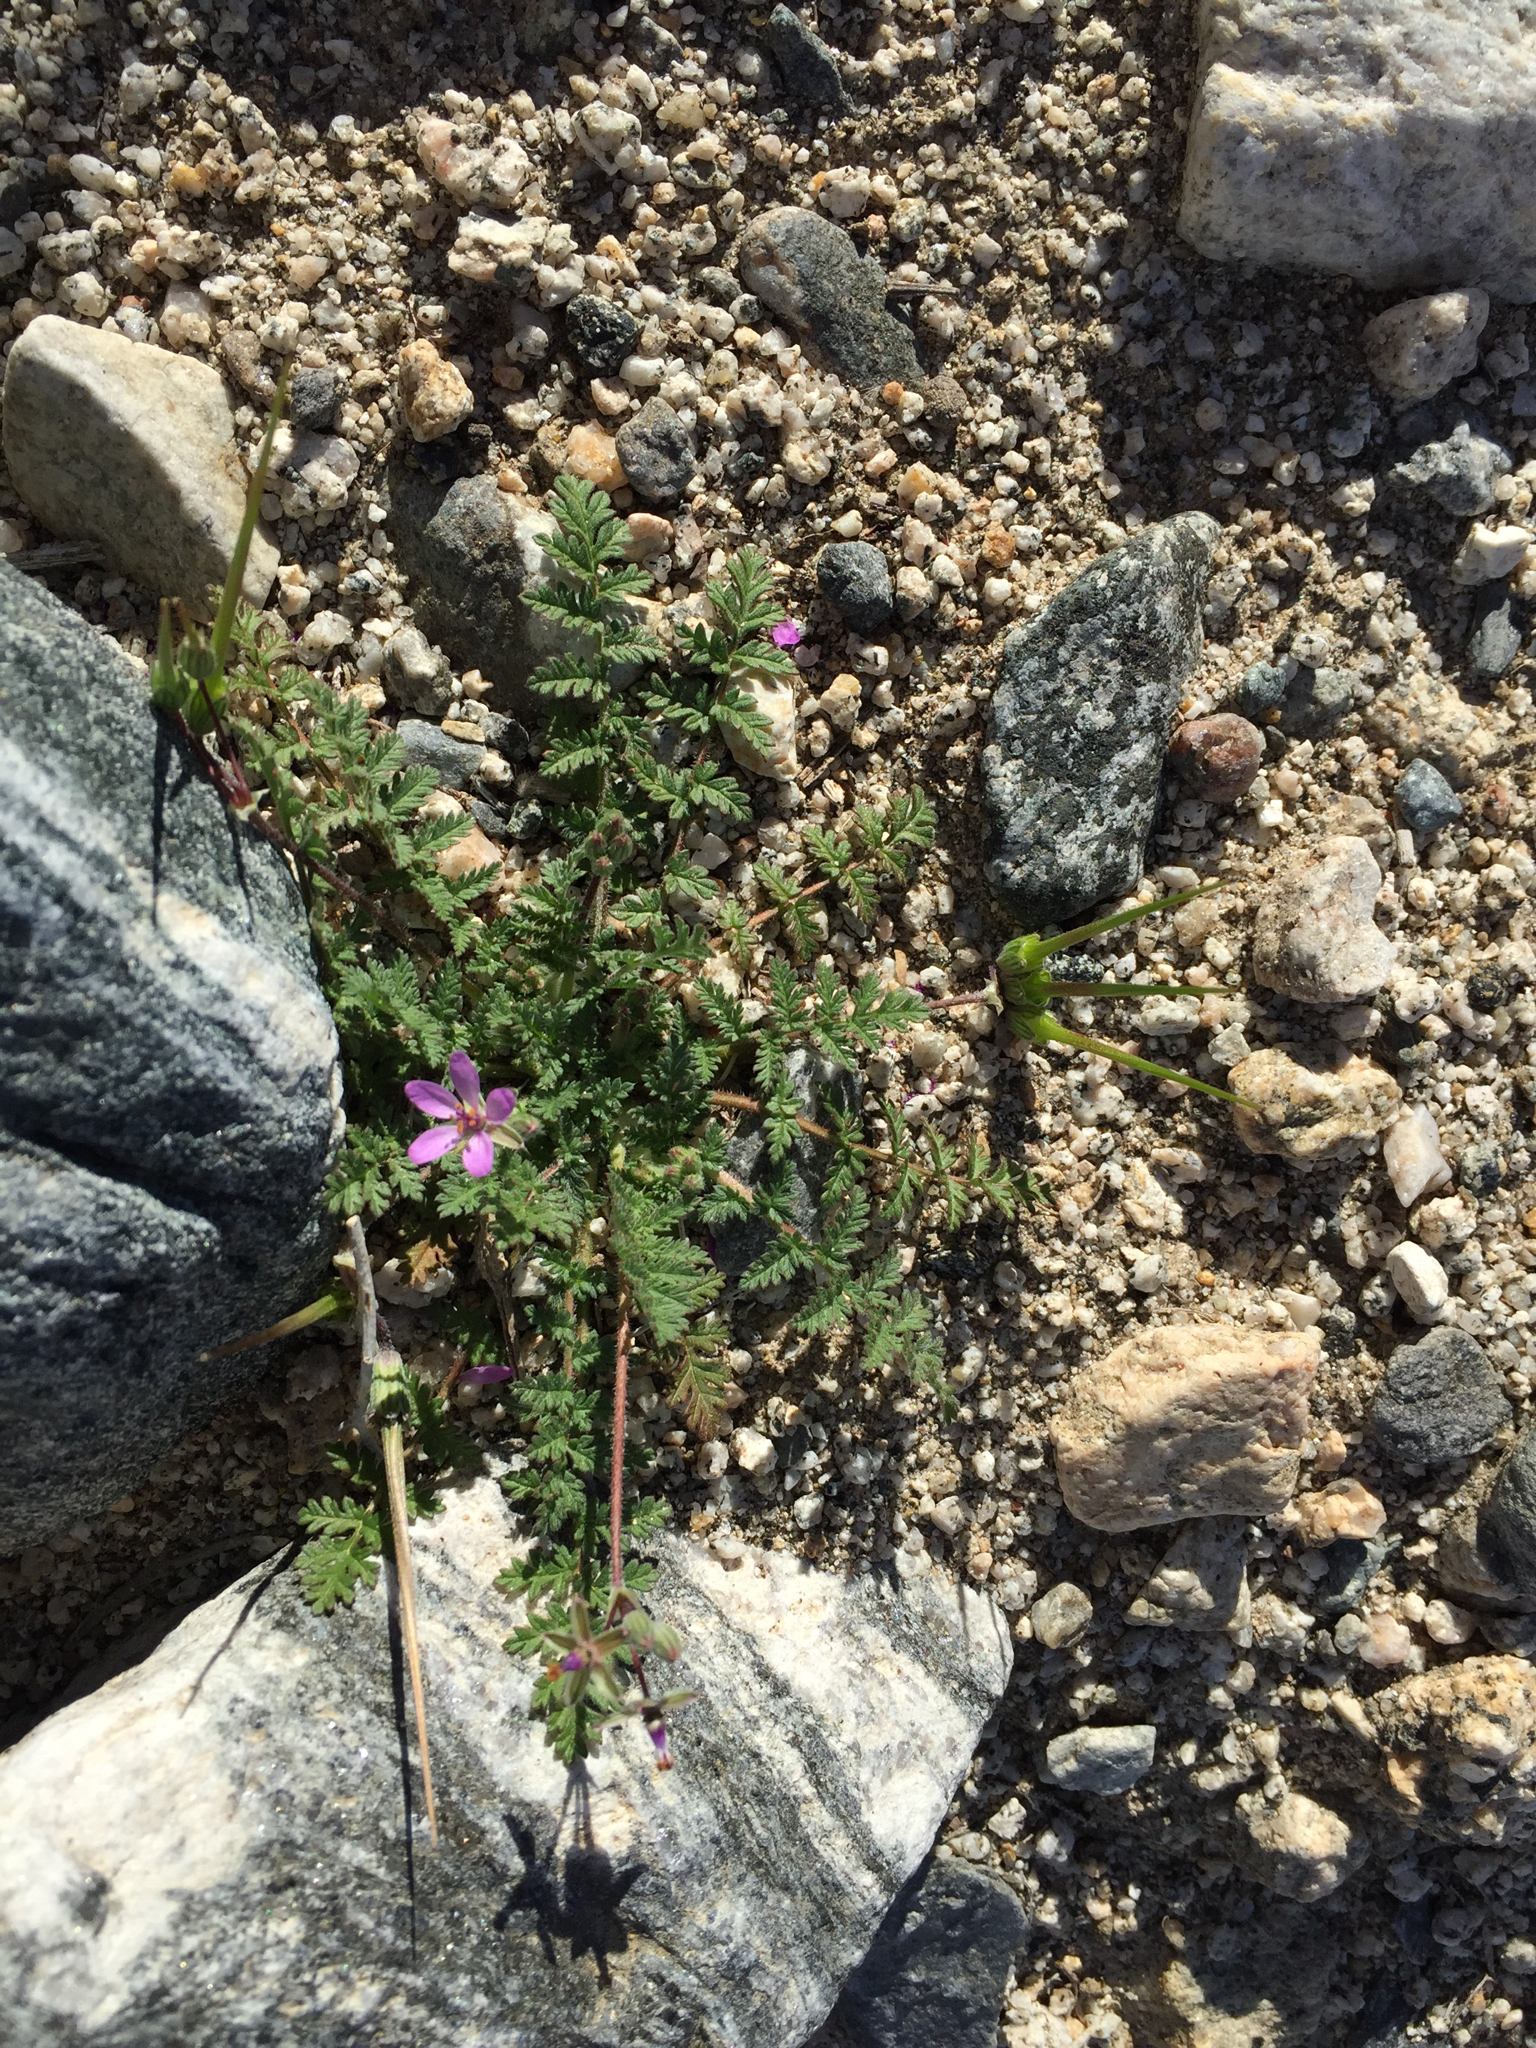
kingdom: Plantae
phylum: Tracheophyta
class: Magnoliopsida
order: Geraniales
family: Geraniaceae
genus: Erodium
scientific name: Erodium cicutarium
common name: Common stork's-bill
